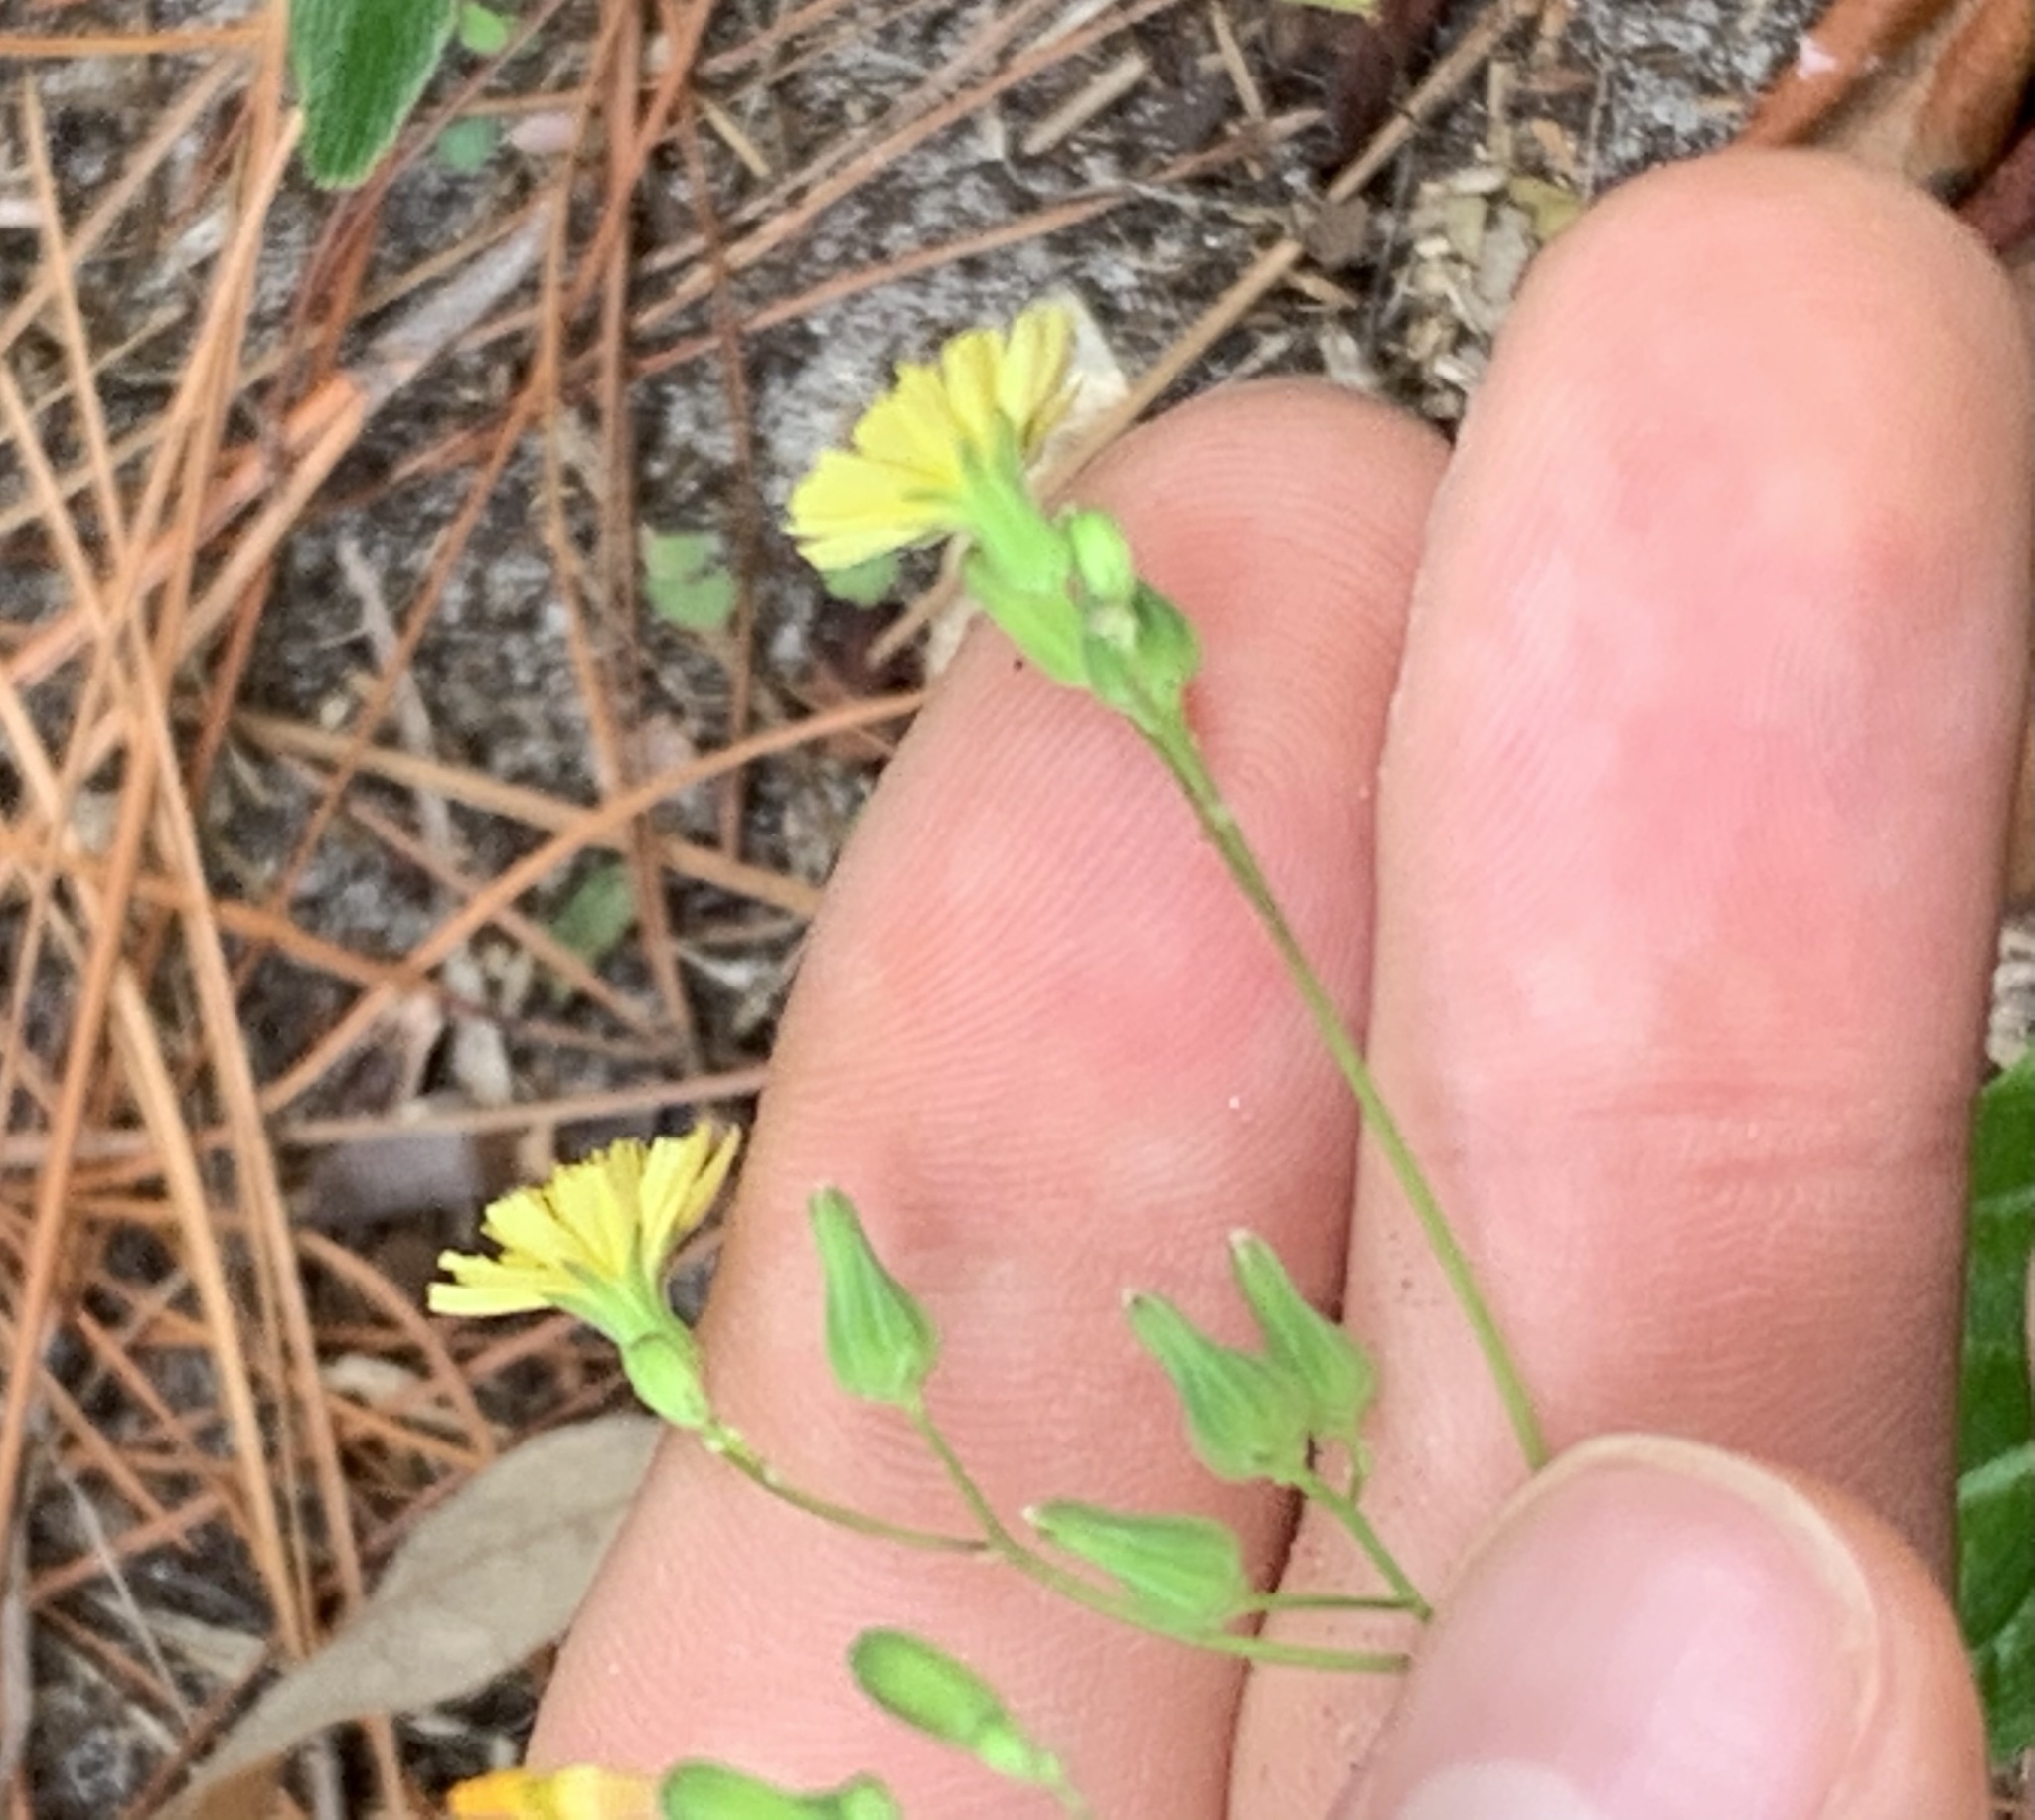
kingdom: Plantae
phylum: Tracheophyta
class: Magnoliopsida
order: Asterales
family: Asteraceae
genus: Youngia
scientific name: Youngia japonica
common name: Oriental false hawksbeard
